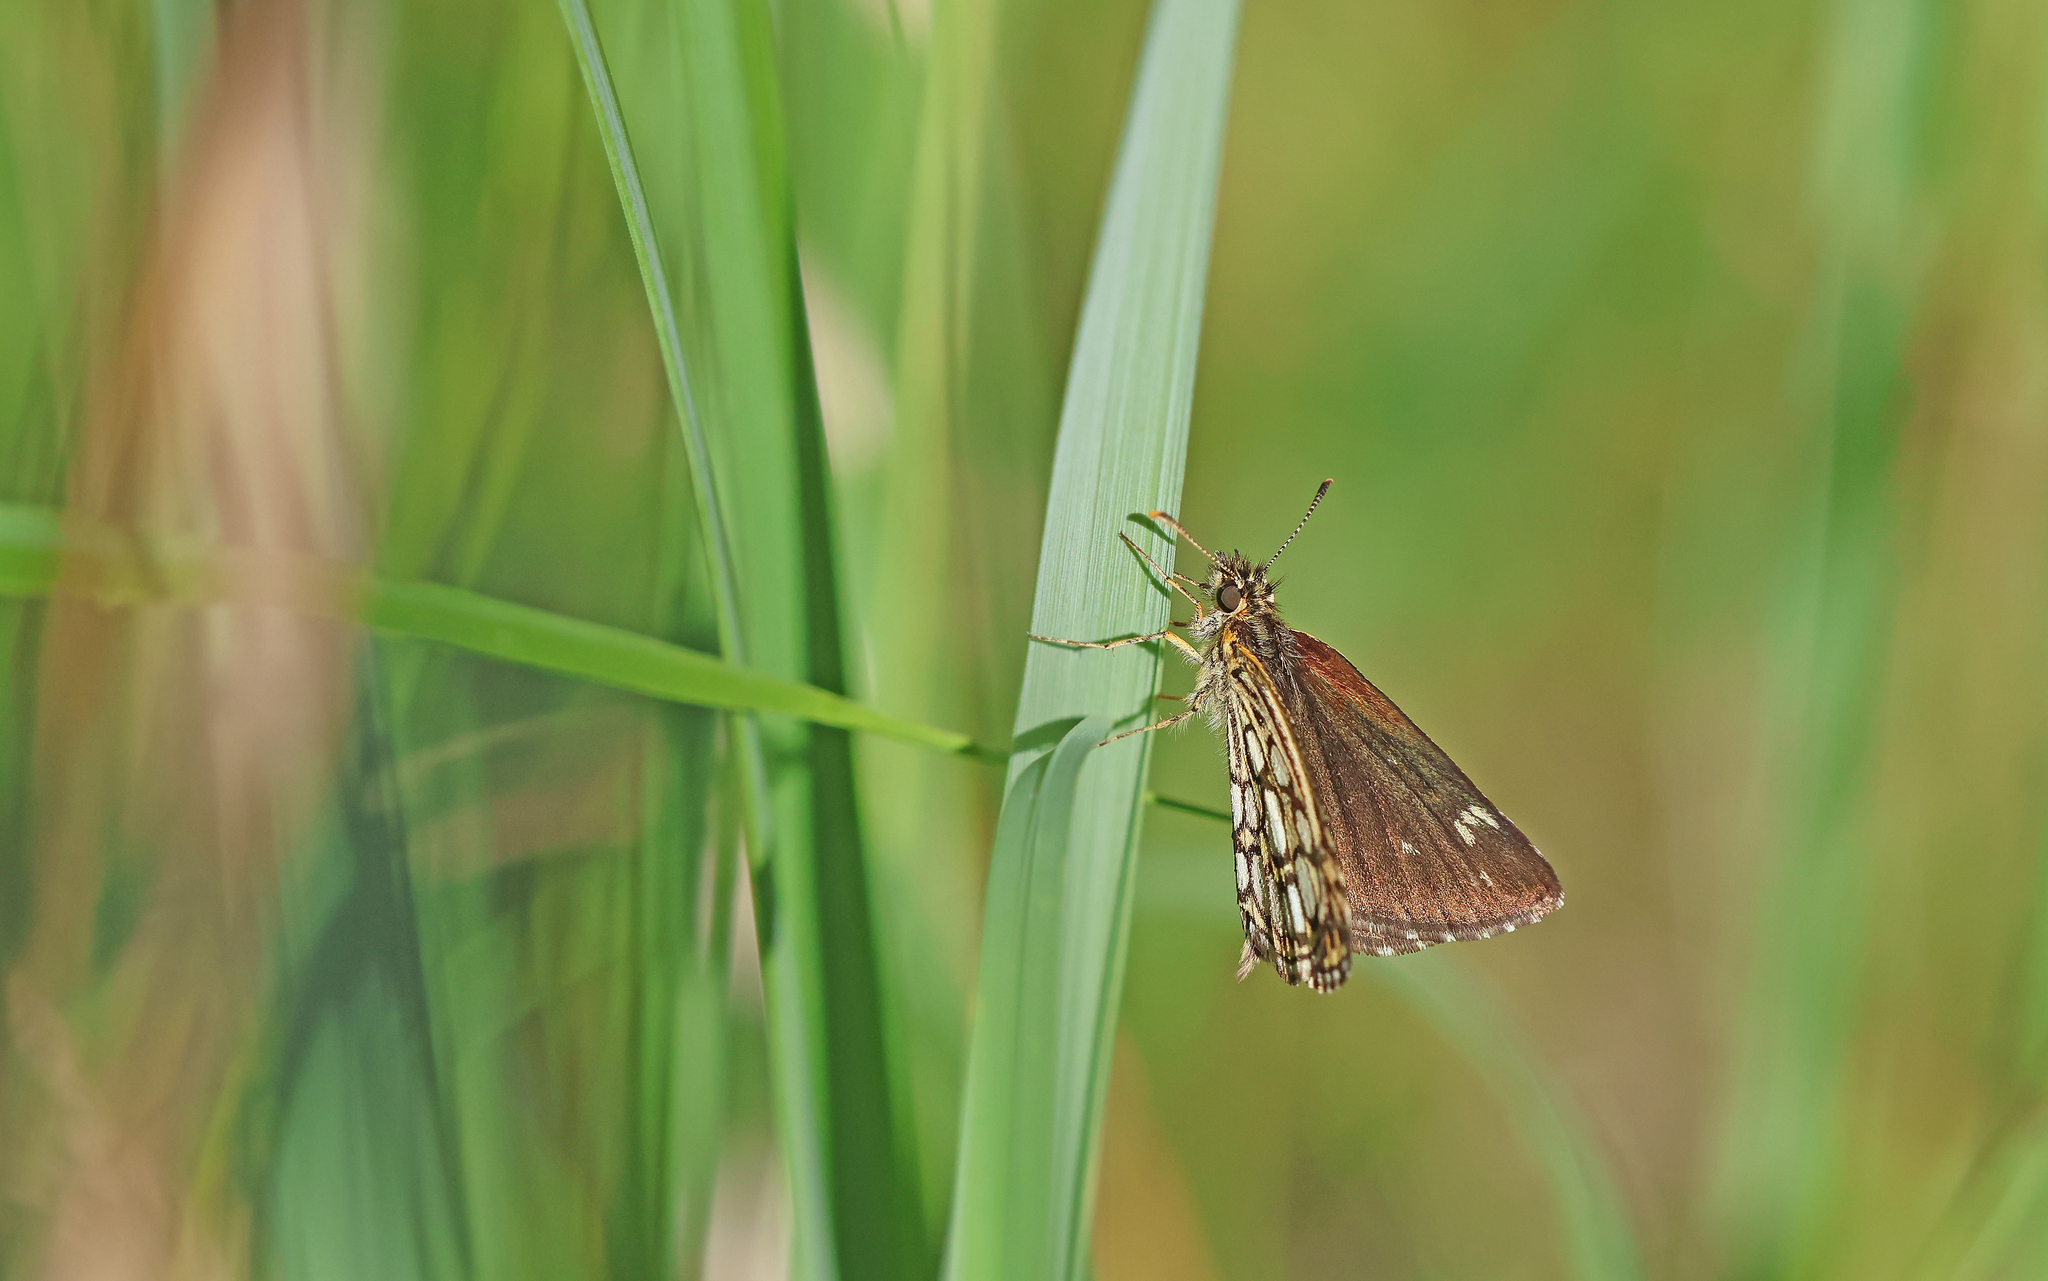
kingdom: Animalia
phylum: Arthropoda
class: Insecta
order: Lepidoptera
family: Hesperiidae
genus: Heteropterus
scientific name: Heteropterus morpheus
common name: Large chequered skipper
